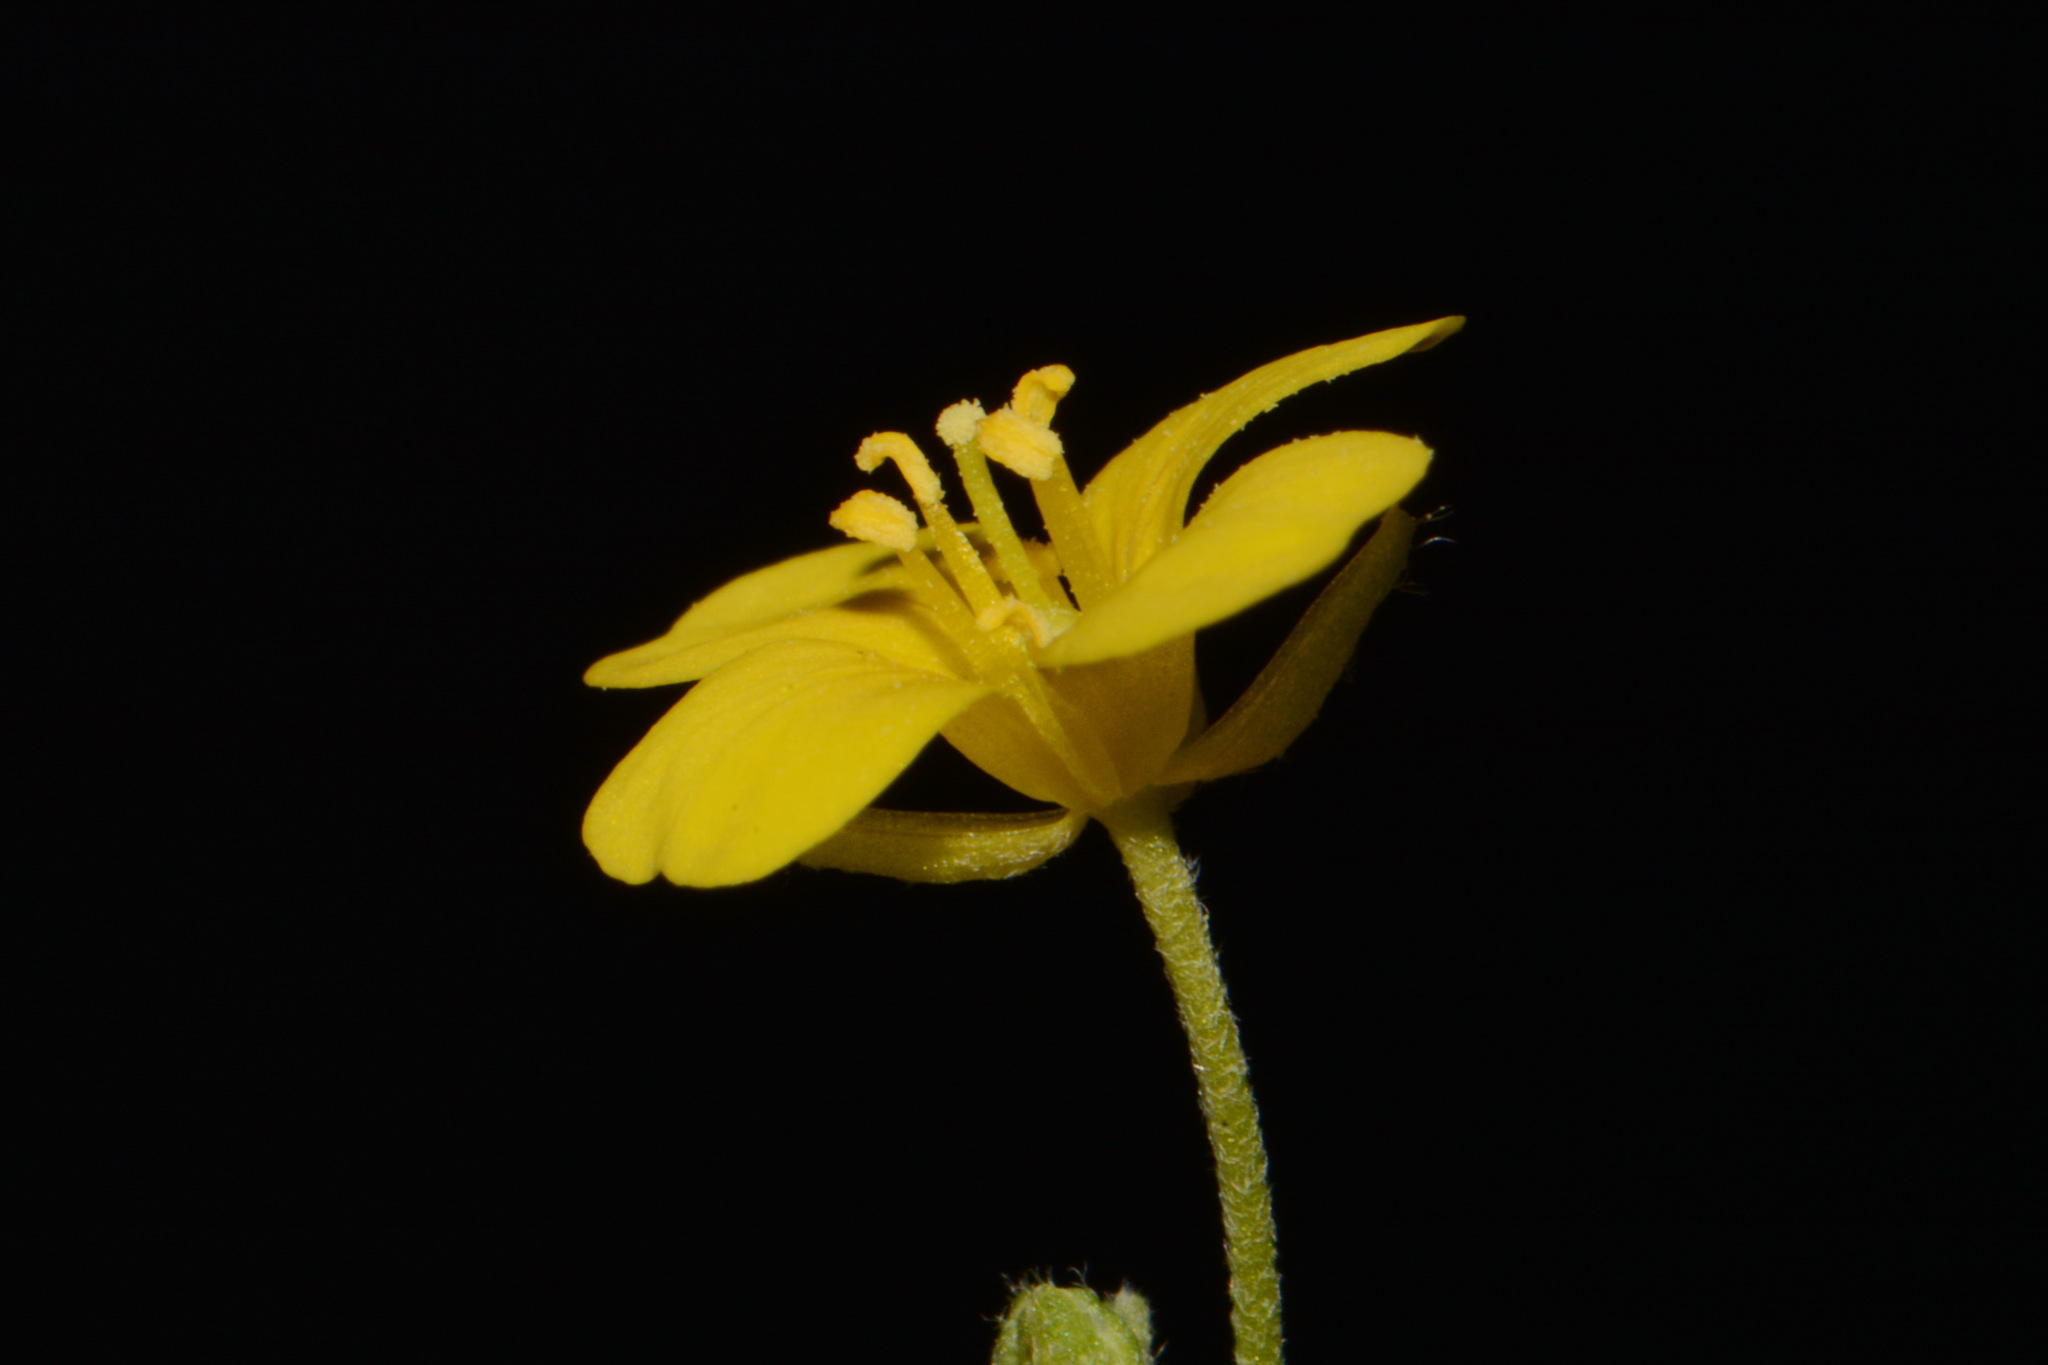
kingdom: Plantae
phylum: Tracheophyta
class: Magnoliopsida
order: Brassicales
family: Brassicaceae
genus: Paysonia
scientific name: Paysonia lyrata
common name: Lyrate bladderpod
